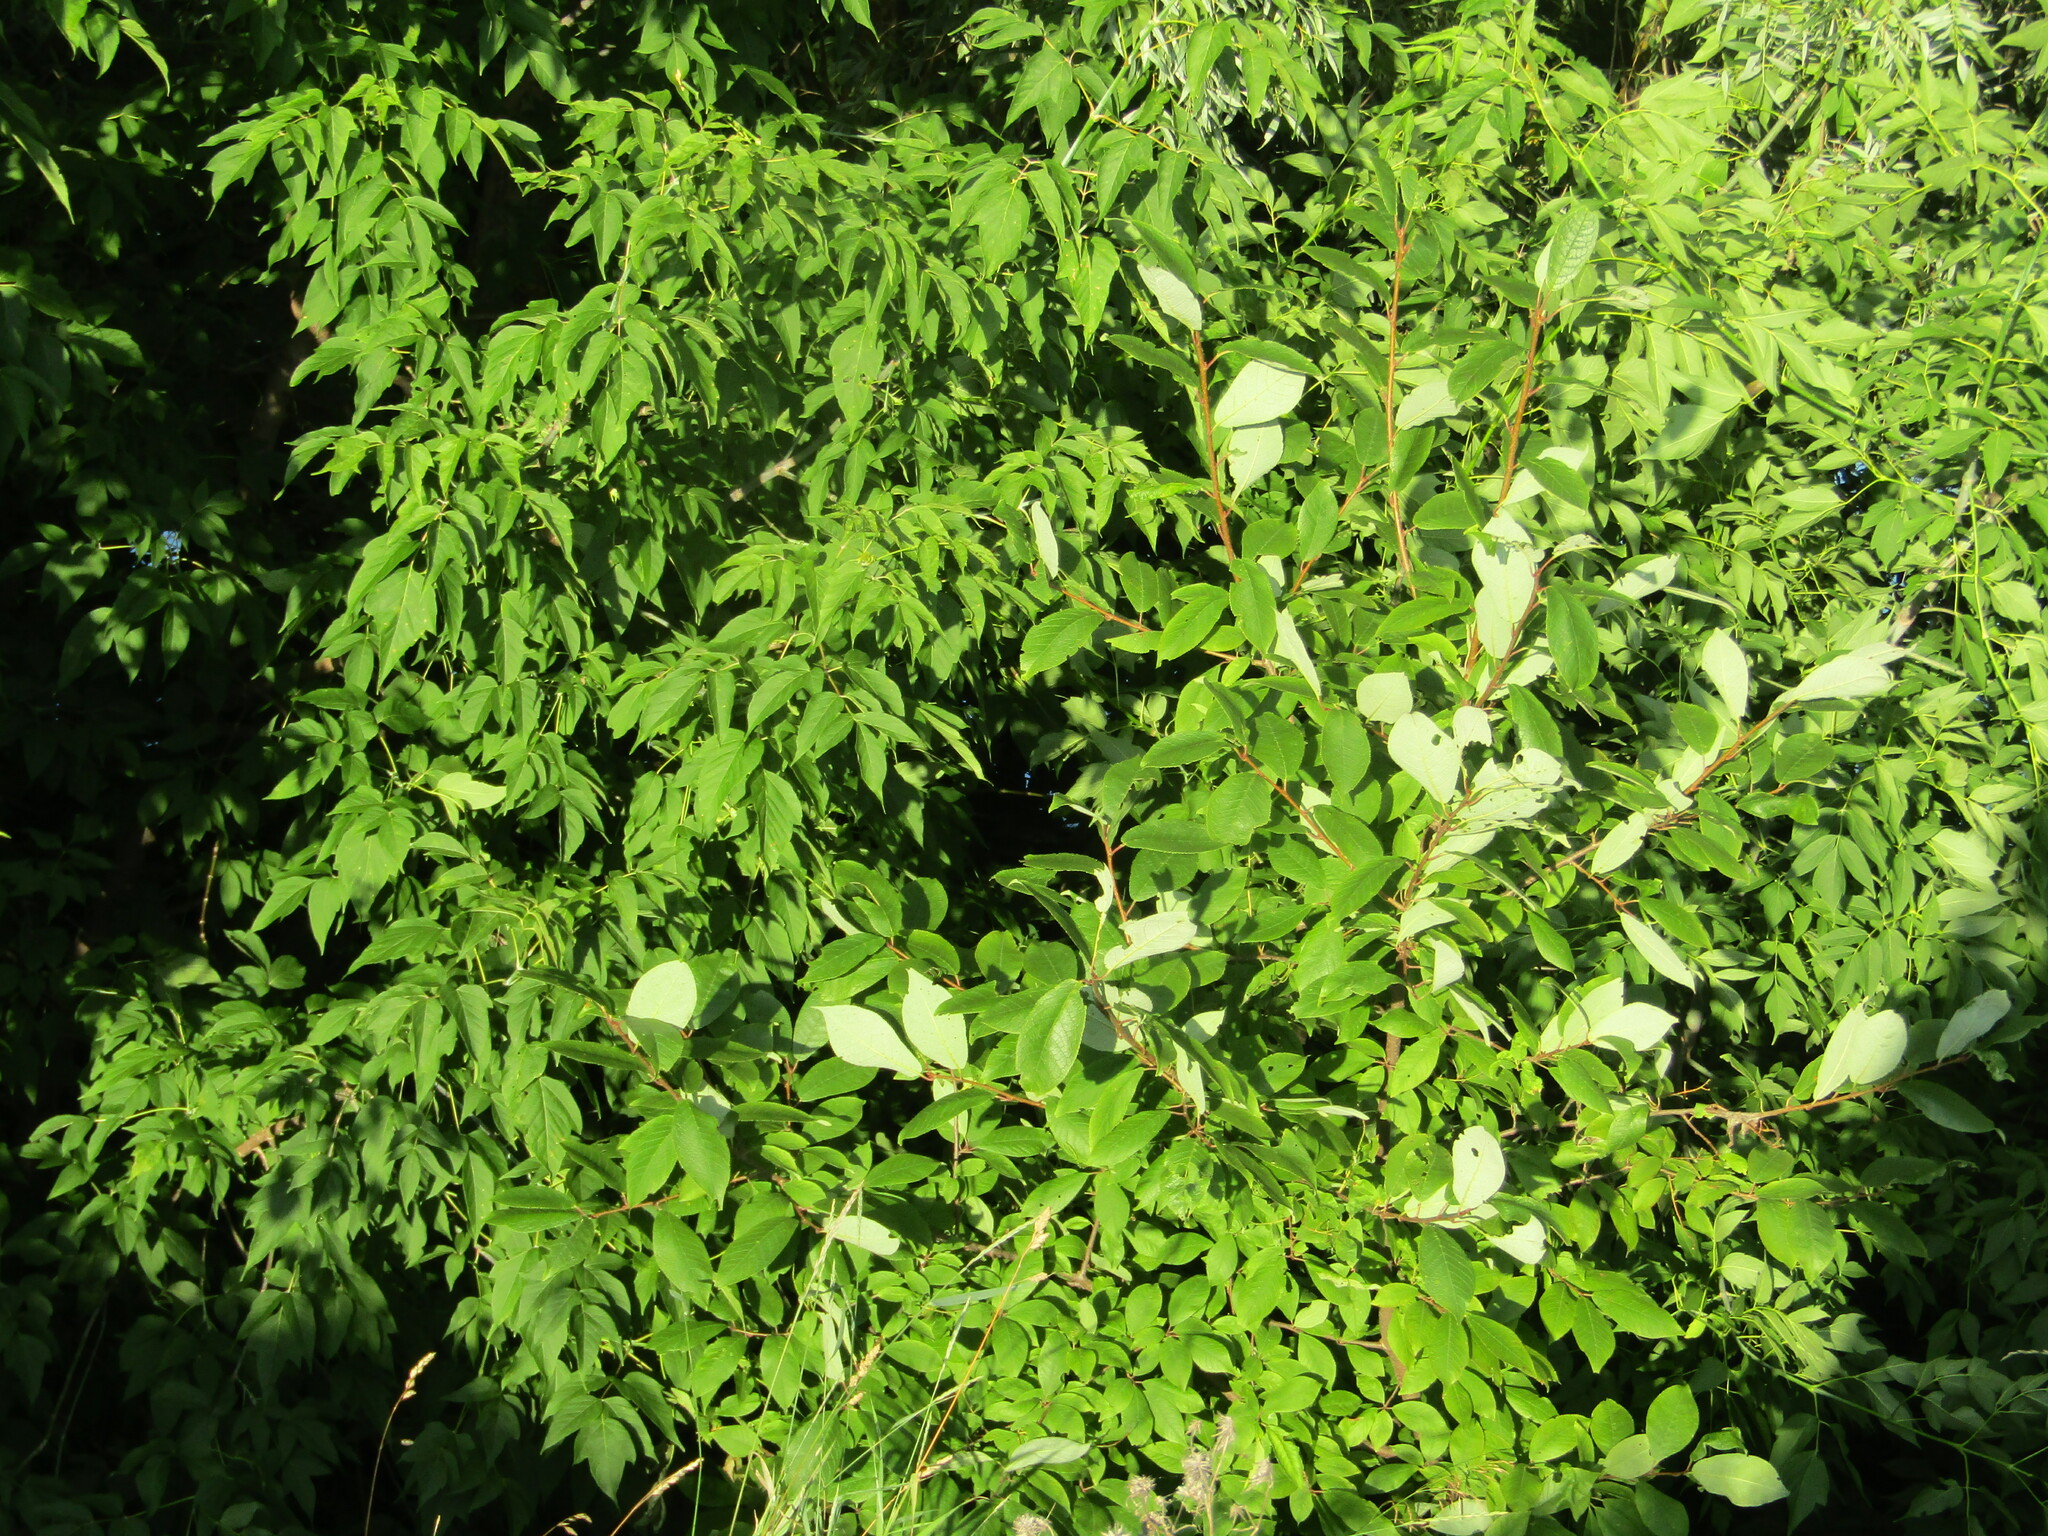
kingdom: Plantae
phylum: Tracheophyta
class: Magnoliopsida
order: Rosales
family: Rosaceae
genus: Prunus
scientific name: Prunus padus
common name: Bird cherry
